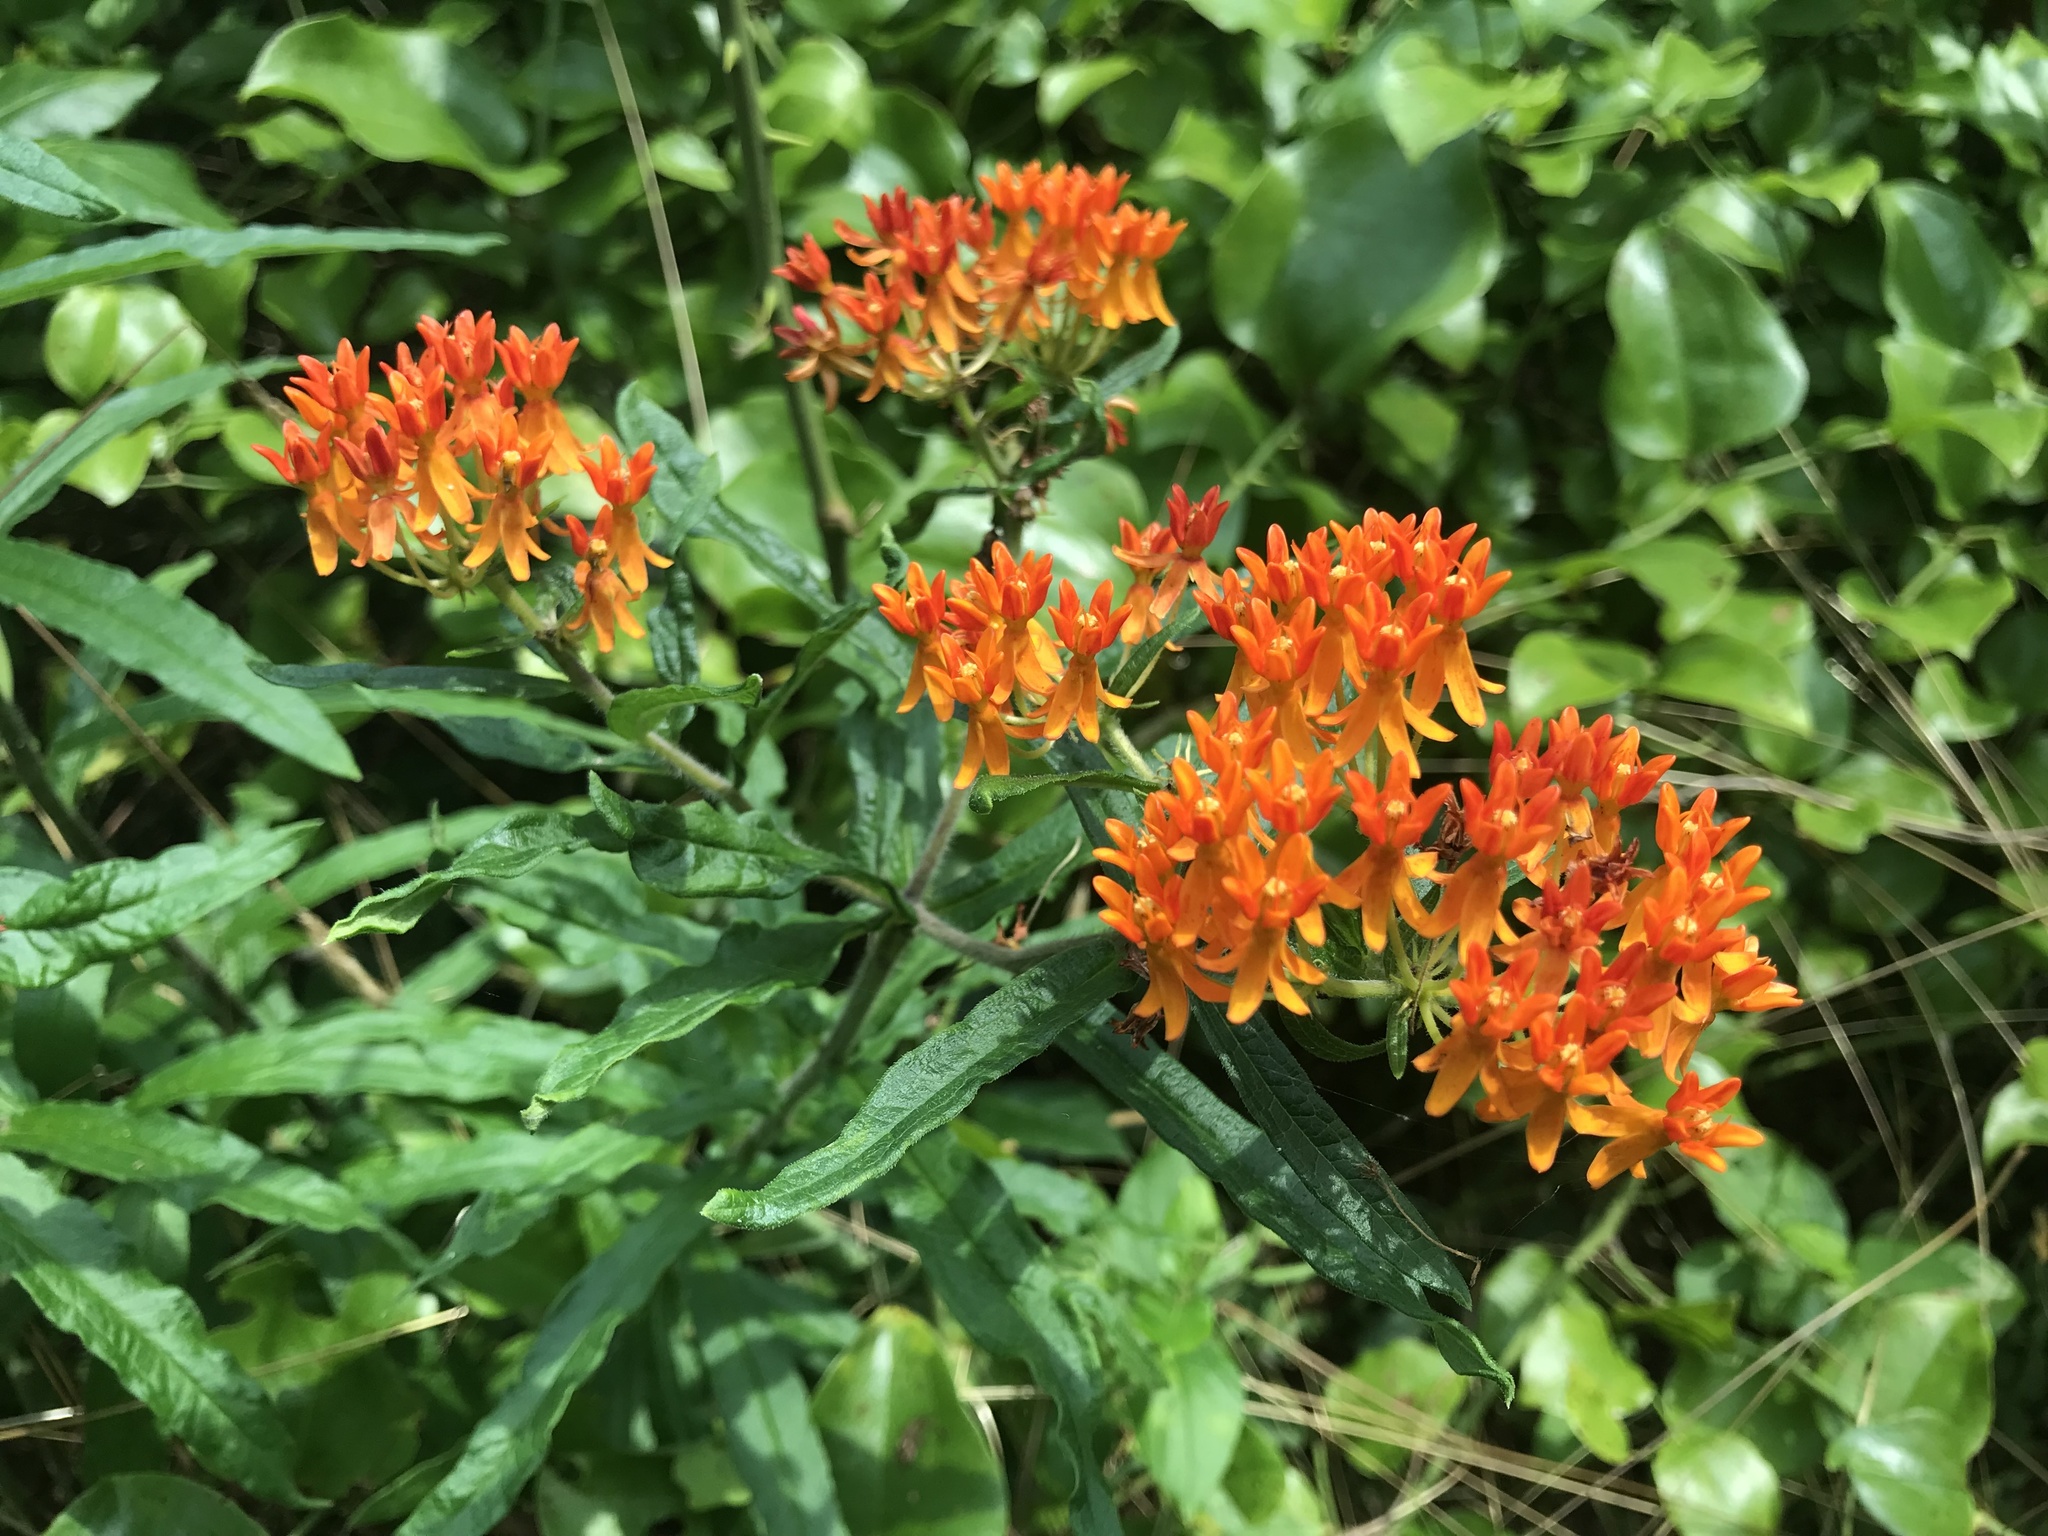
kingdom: Plantae
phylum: Tracheophyta
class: Magnoliopsida
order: Gentianales
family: Apocynaceae
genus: Asclepias
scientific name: Asclepias tuberosa
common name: Butterfly milkweed
